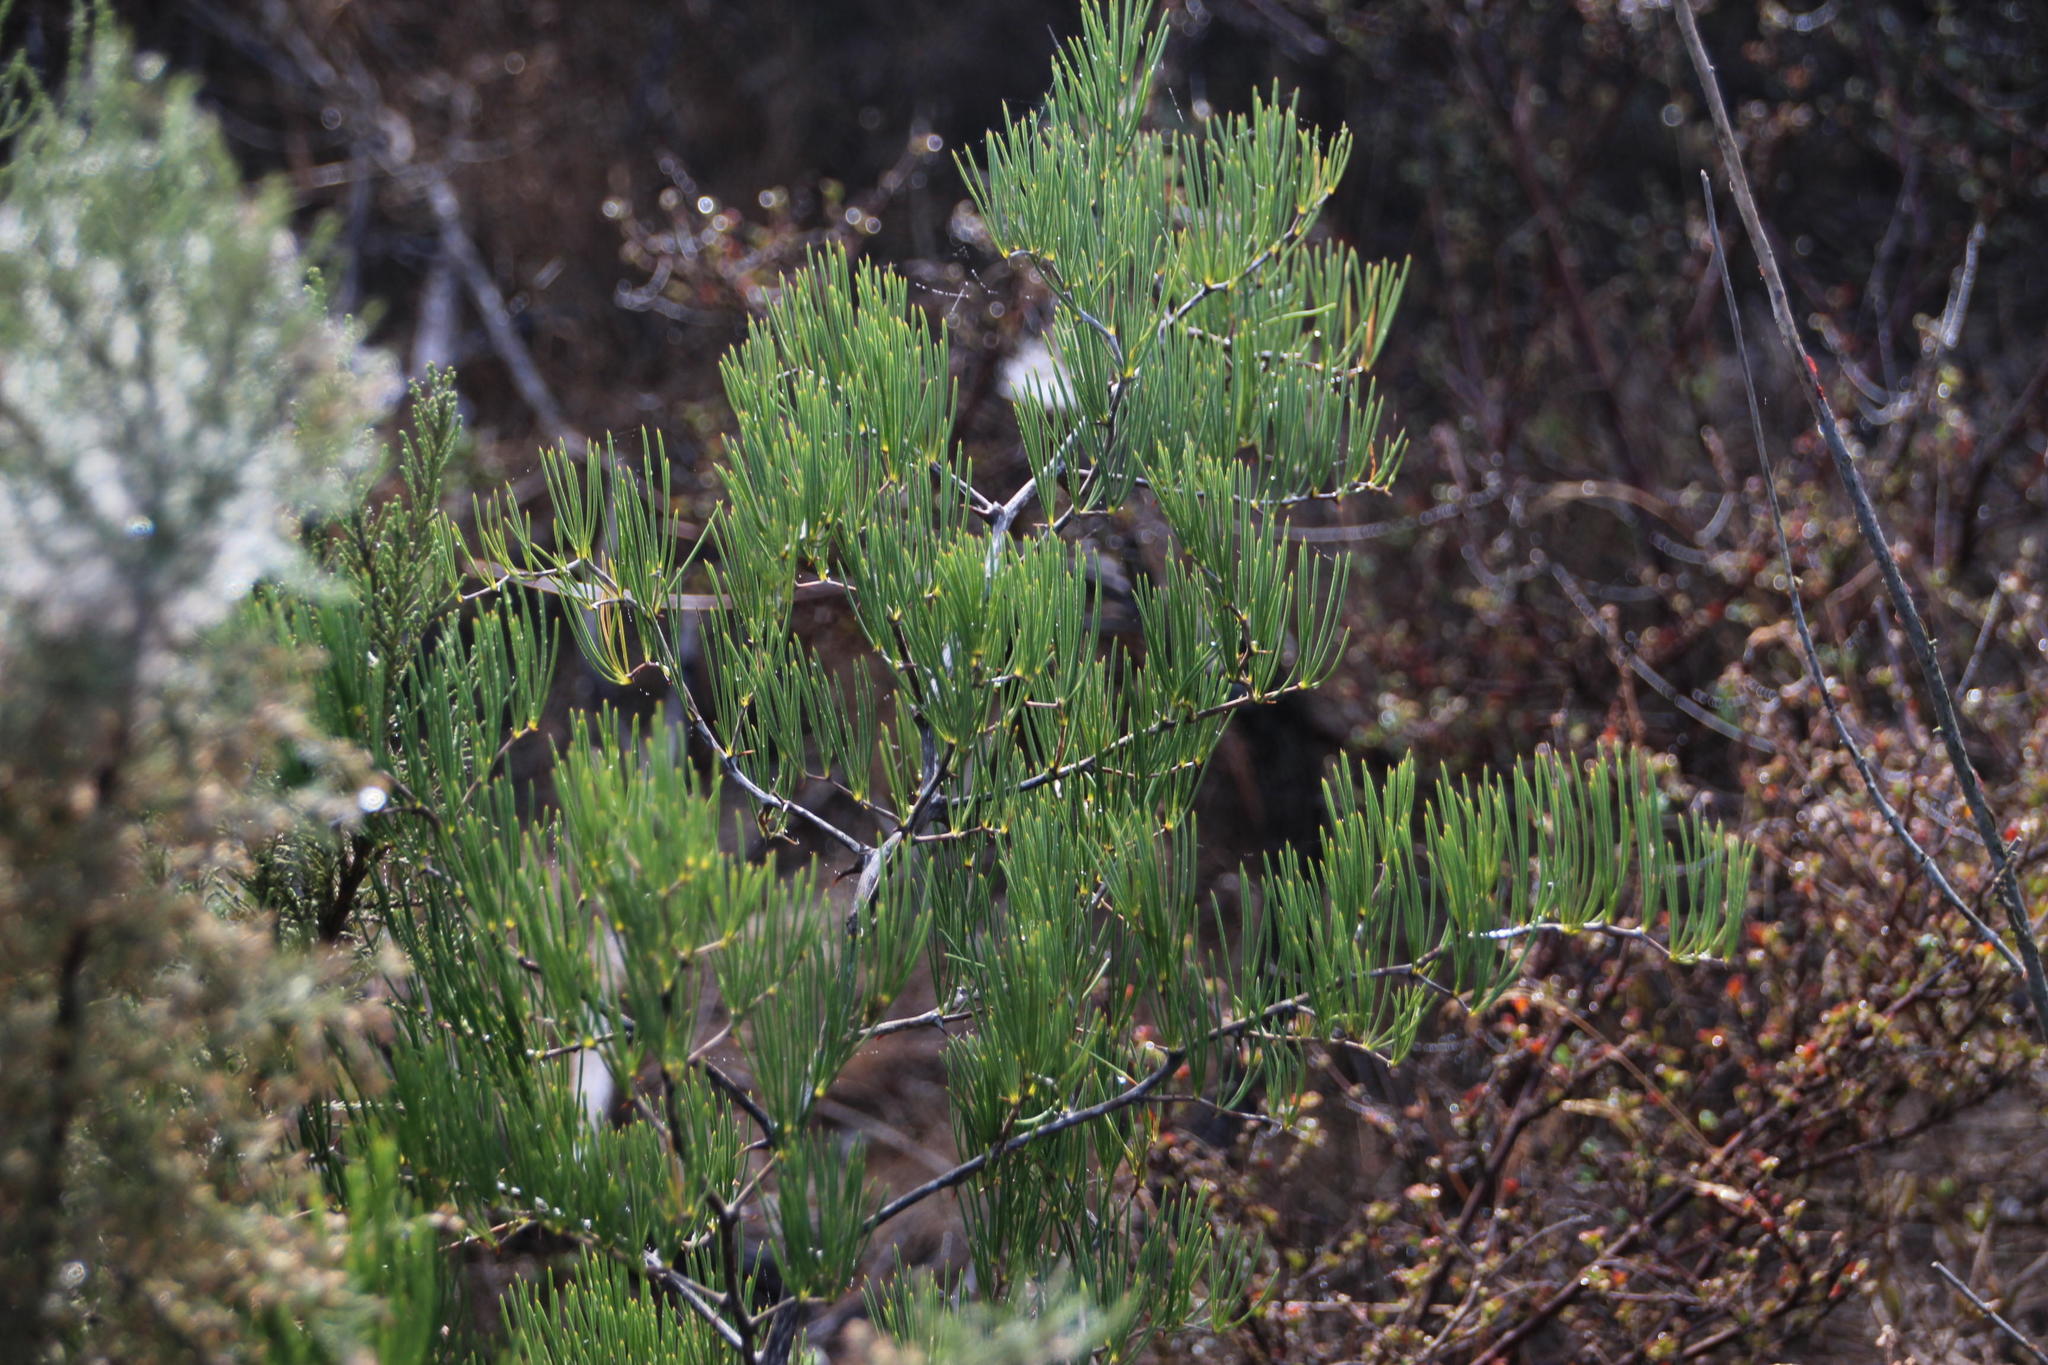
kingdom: Plantae
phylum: Tracheophyta
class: Liliopsida
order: Asparagales
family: Asparagaceae
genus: Asparagus
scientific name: Asparagus lignosus
